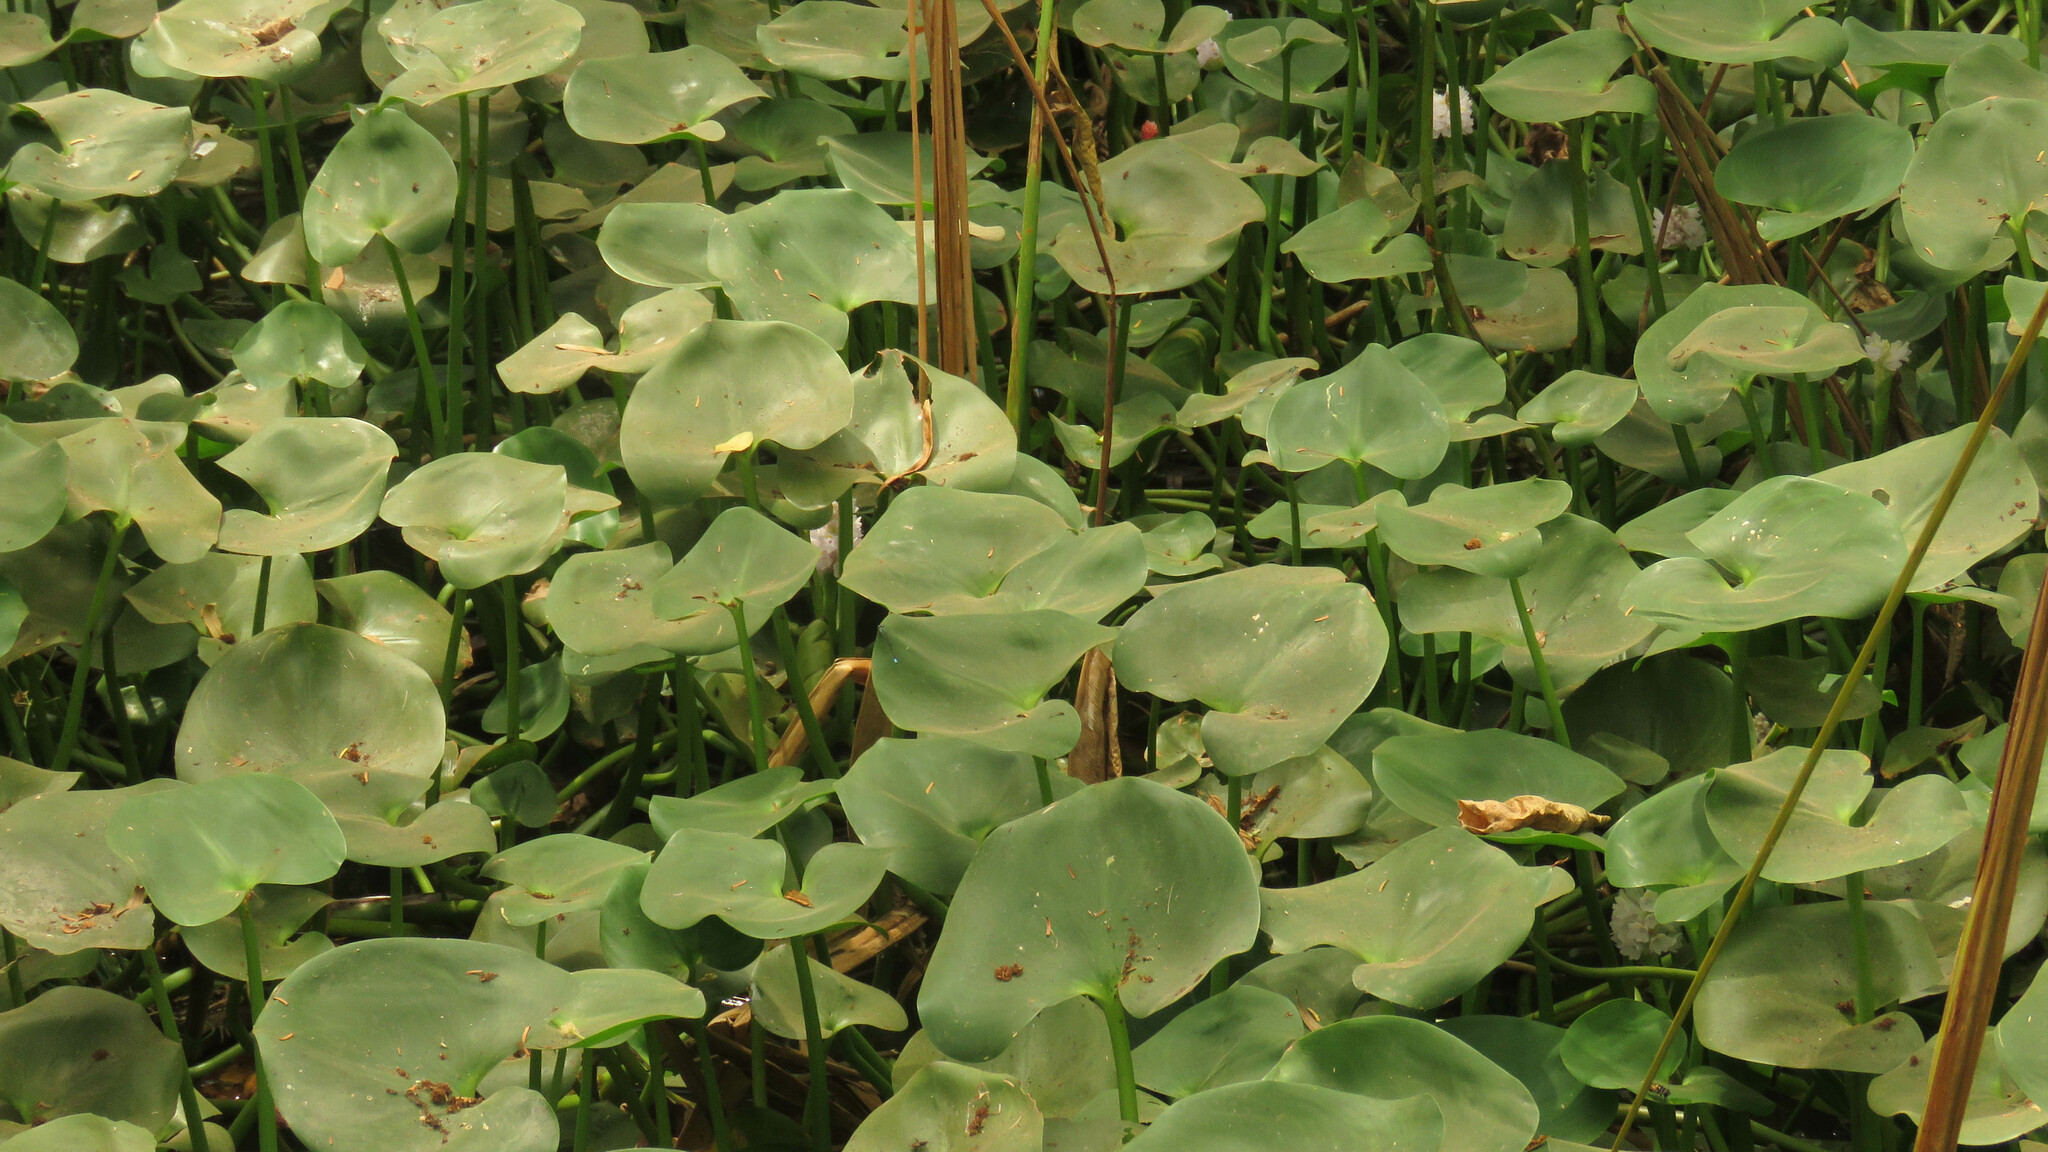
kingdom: Plantae
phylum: Tracheophyta
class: Liliopsida
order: Commelinales
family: Pontederiaceae
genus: Pontederia
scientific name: Pontederia rotundifolia
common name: Tropical pickerel-weed
